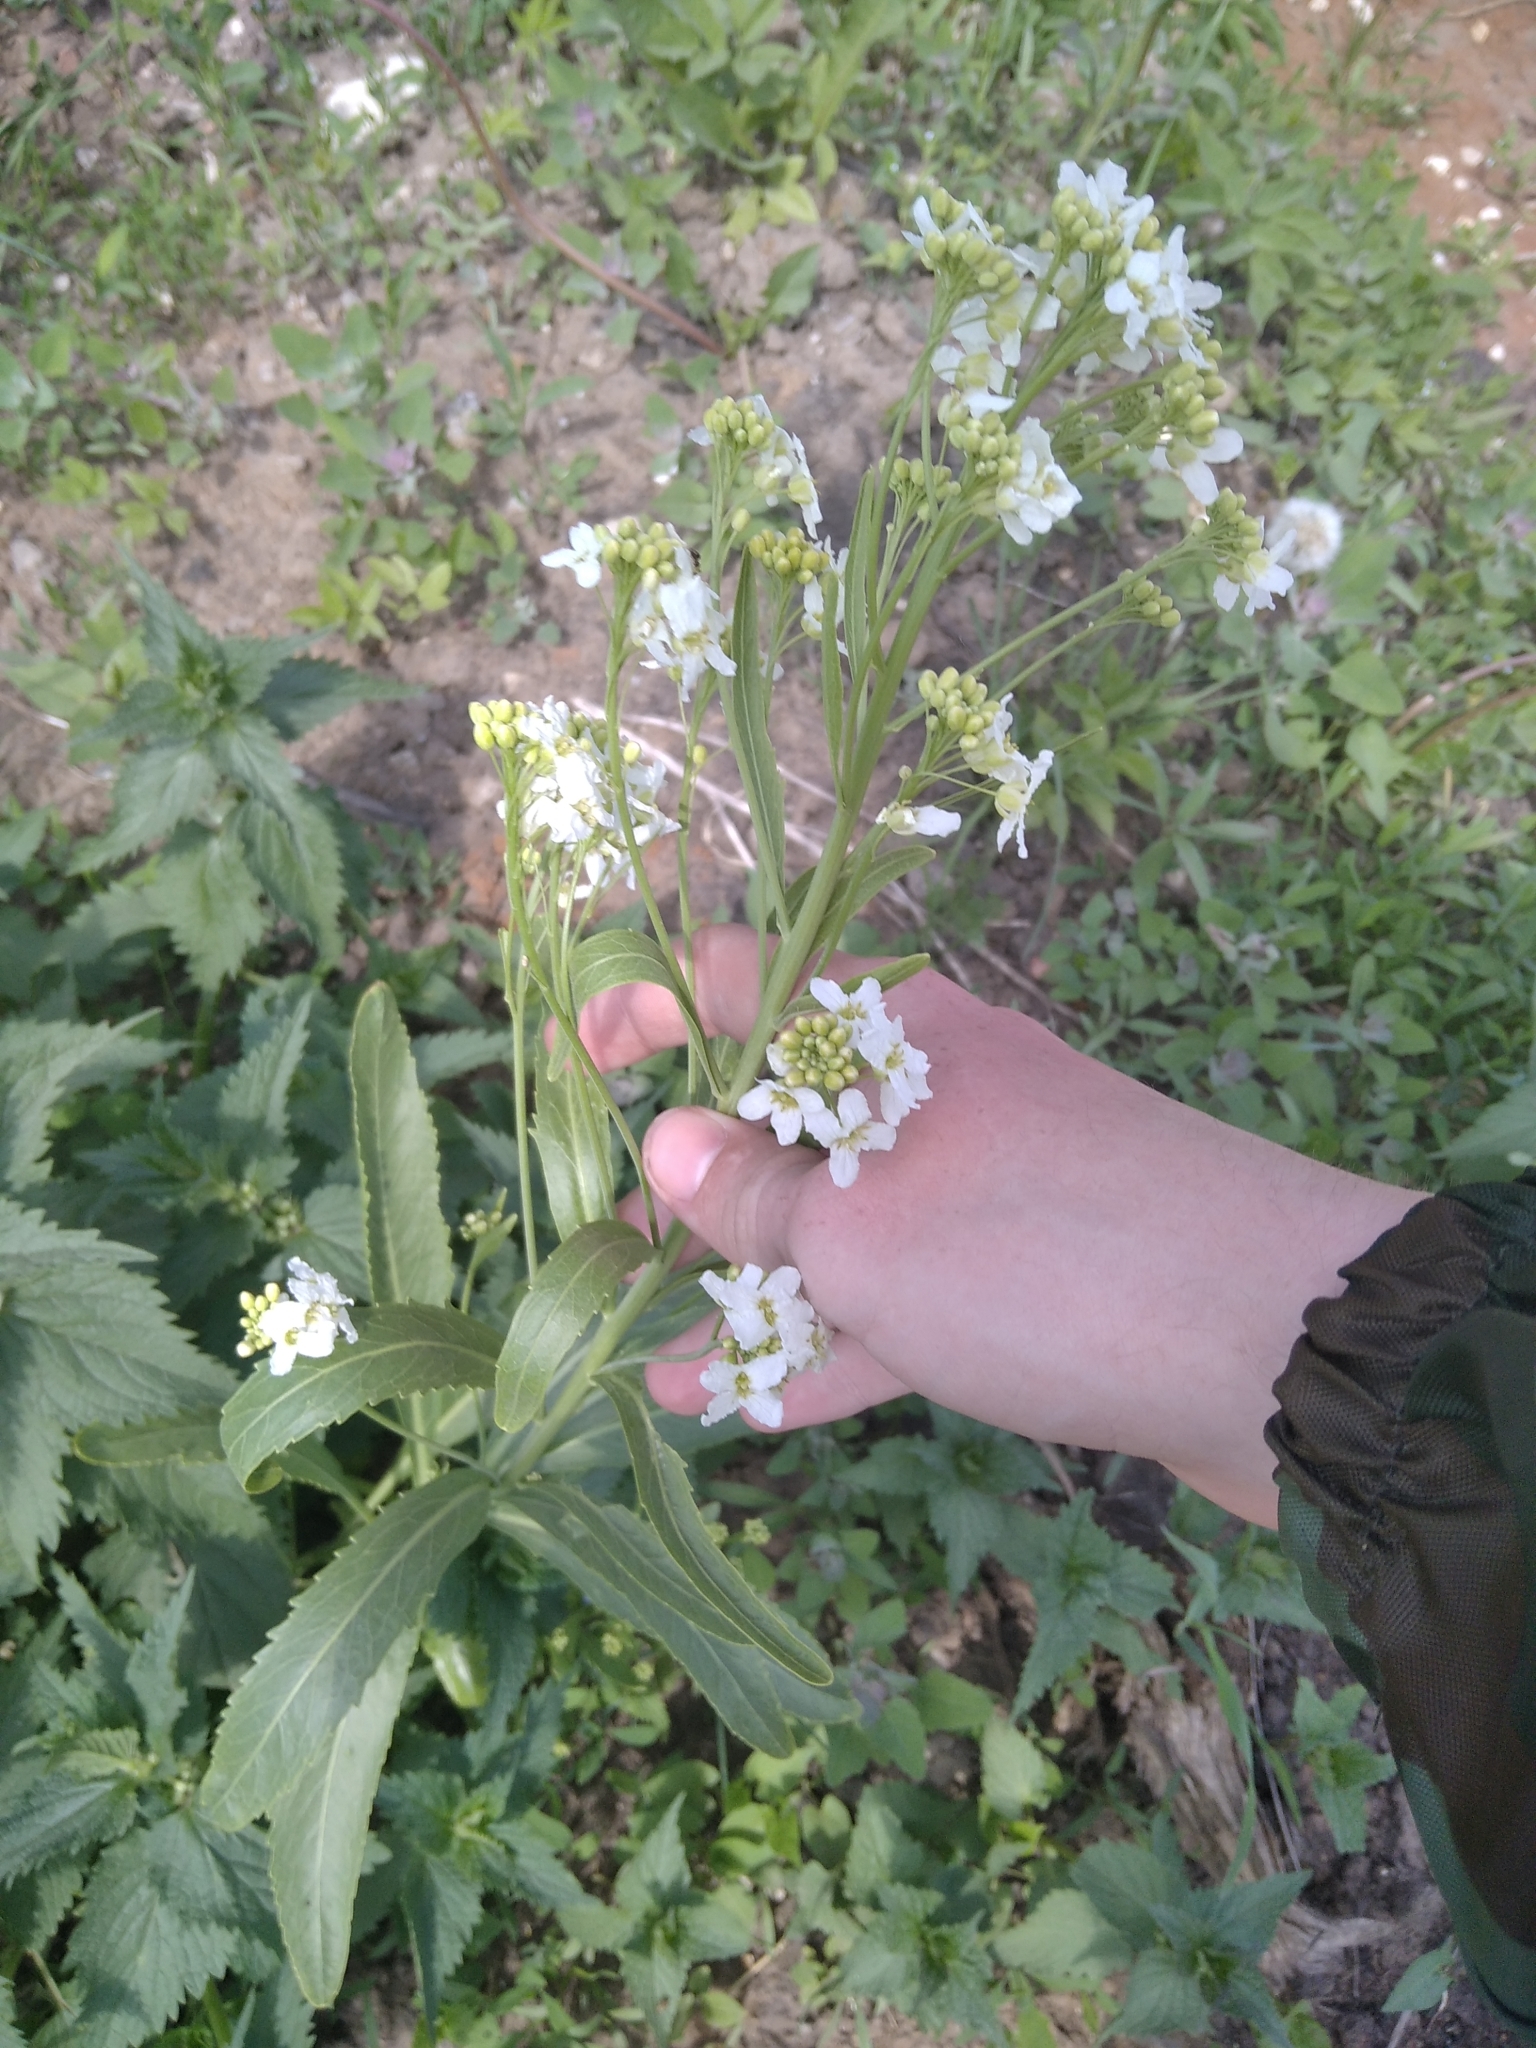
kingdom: Plantae
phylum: Tracheophyta
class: Magnoliopsida
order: Brassicales
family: Brassicaceae
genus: Armoracia
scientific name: Armoracia rusticana
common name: Horseradish
